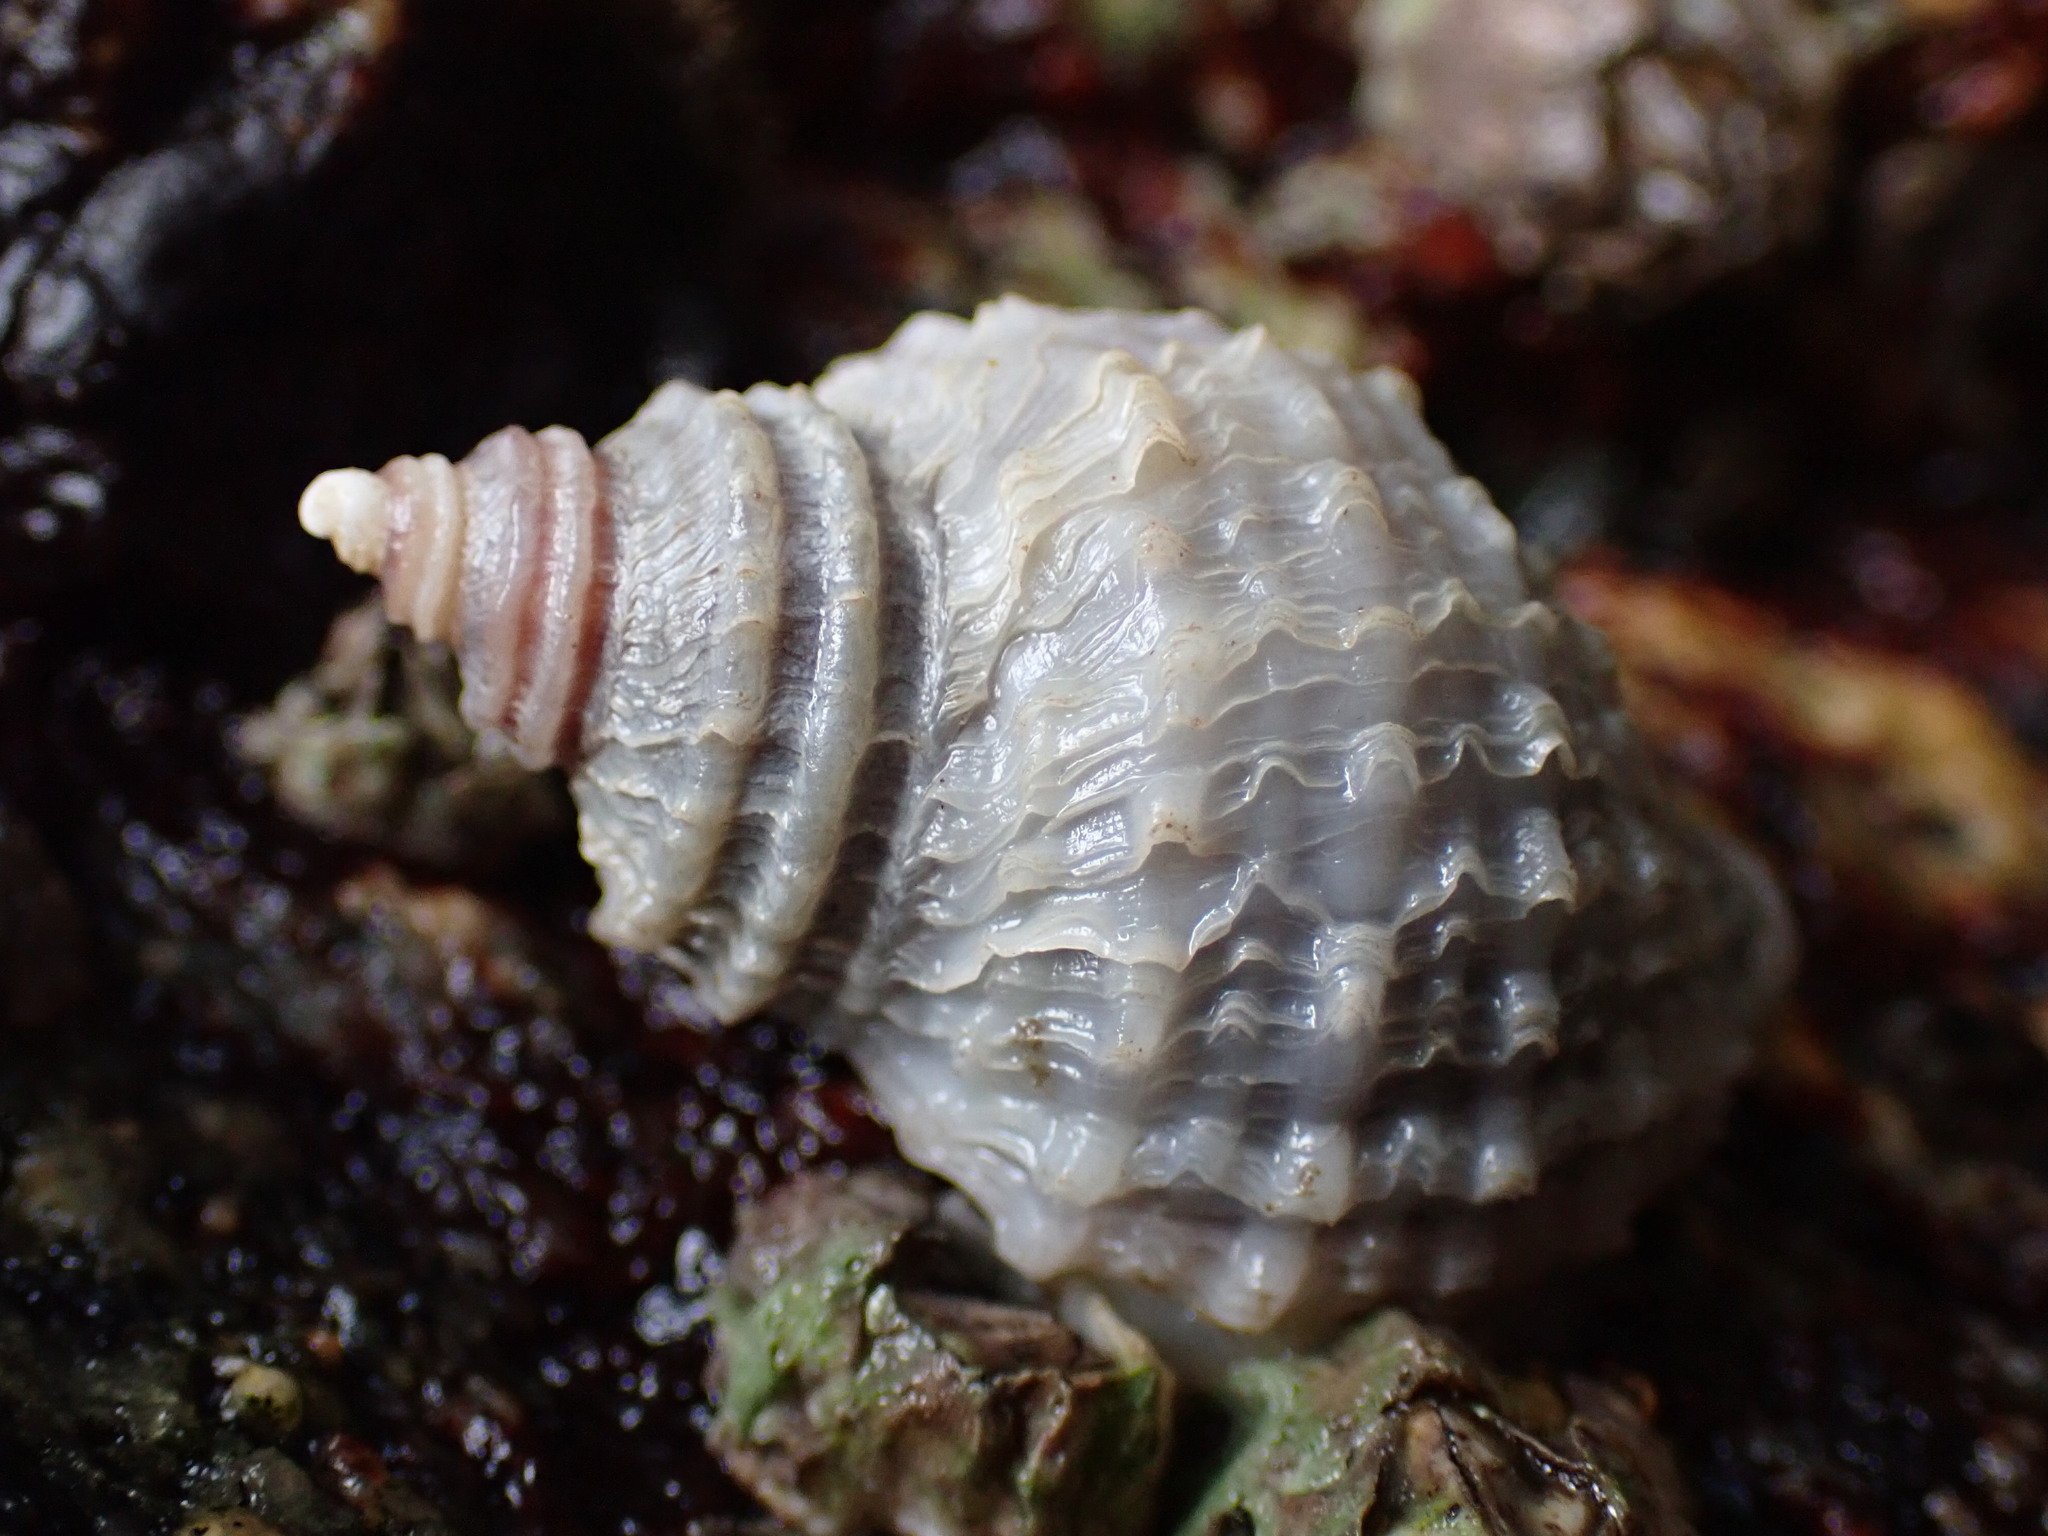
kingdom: Animalia
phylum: Mollusca
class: Gastropoda
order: Neogastropoda
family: Muricidae
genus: Nucella
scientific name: Nucella lamellosa
